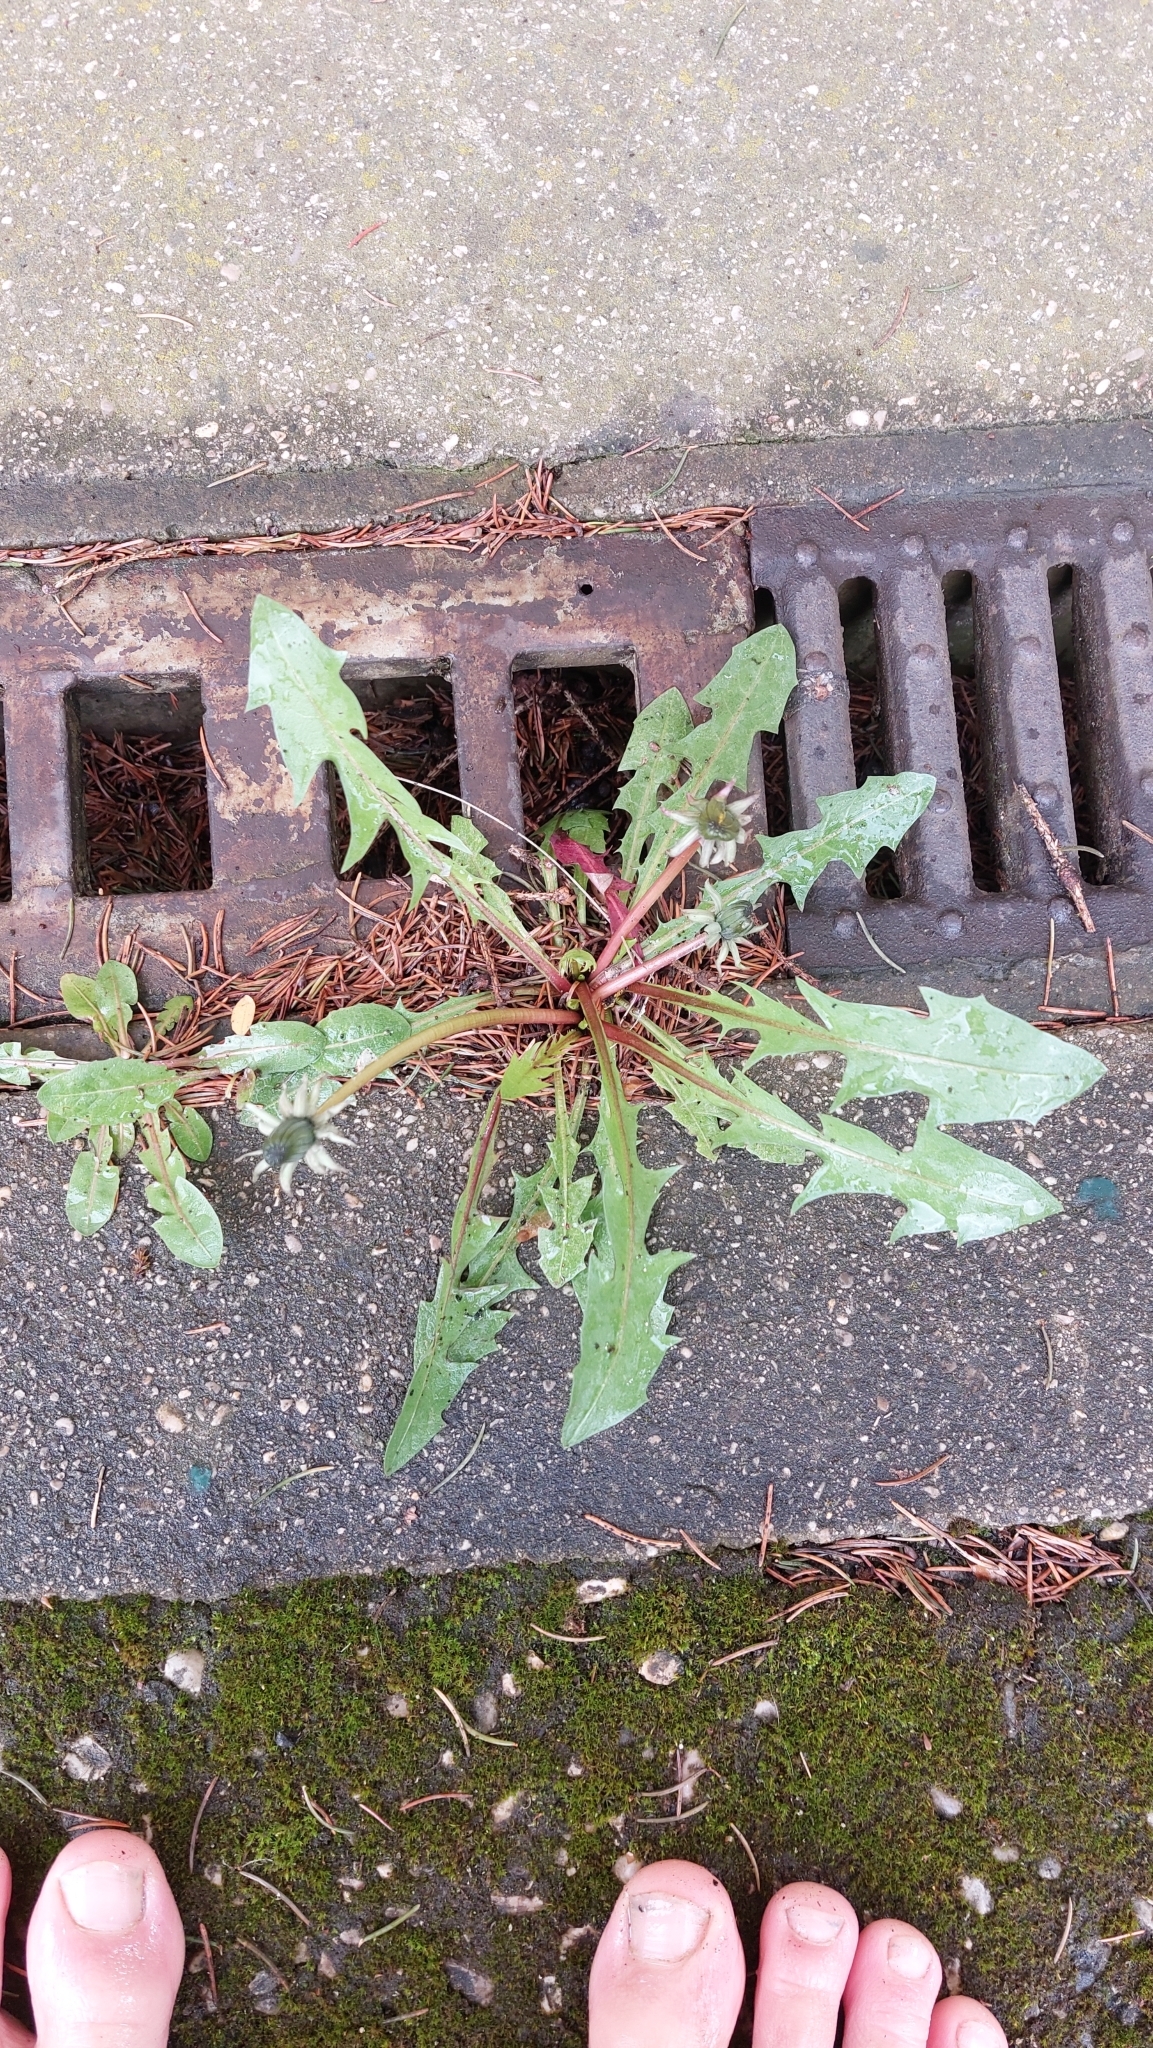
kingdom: Plantae
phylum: Tracheophyta
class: Magnoliopsida
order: Asterales
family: Asteraceae
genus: Taraxacum
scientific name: Taraxacum
